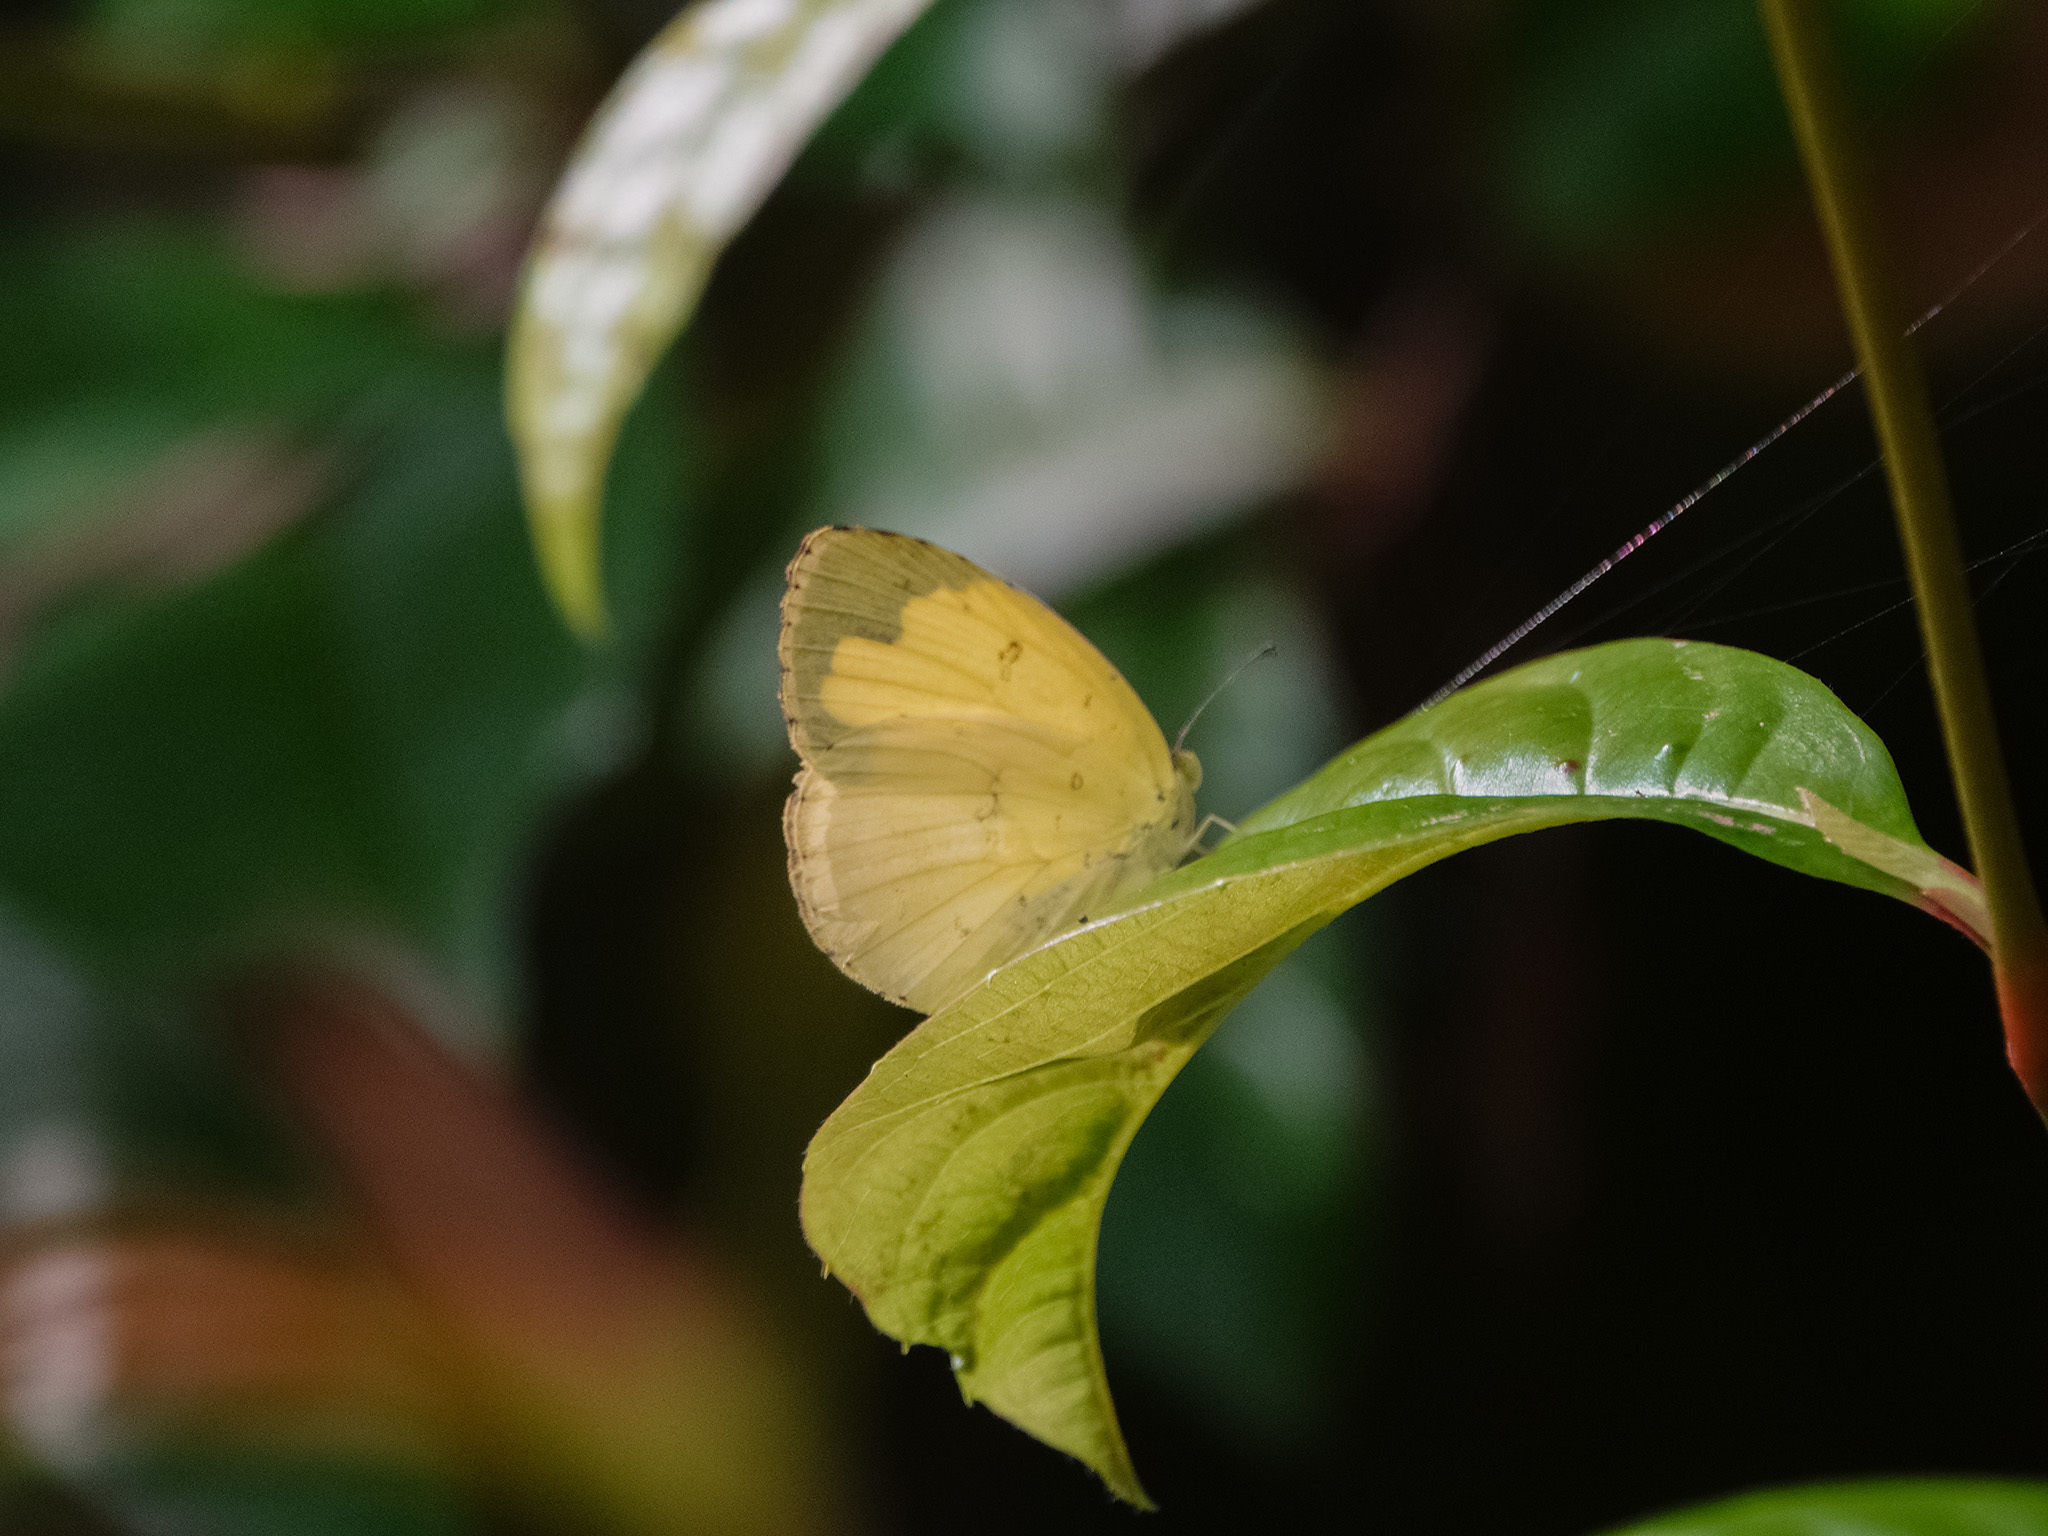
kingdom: Animalia
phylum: Arthropoda
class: Insecta
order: Lepidoptera
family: Pieridae
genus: Eurema
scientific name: Eurema hecabe
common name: Pale grass yellow
